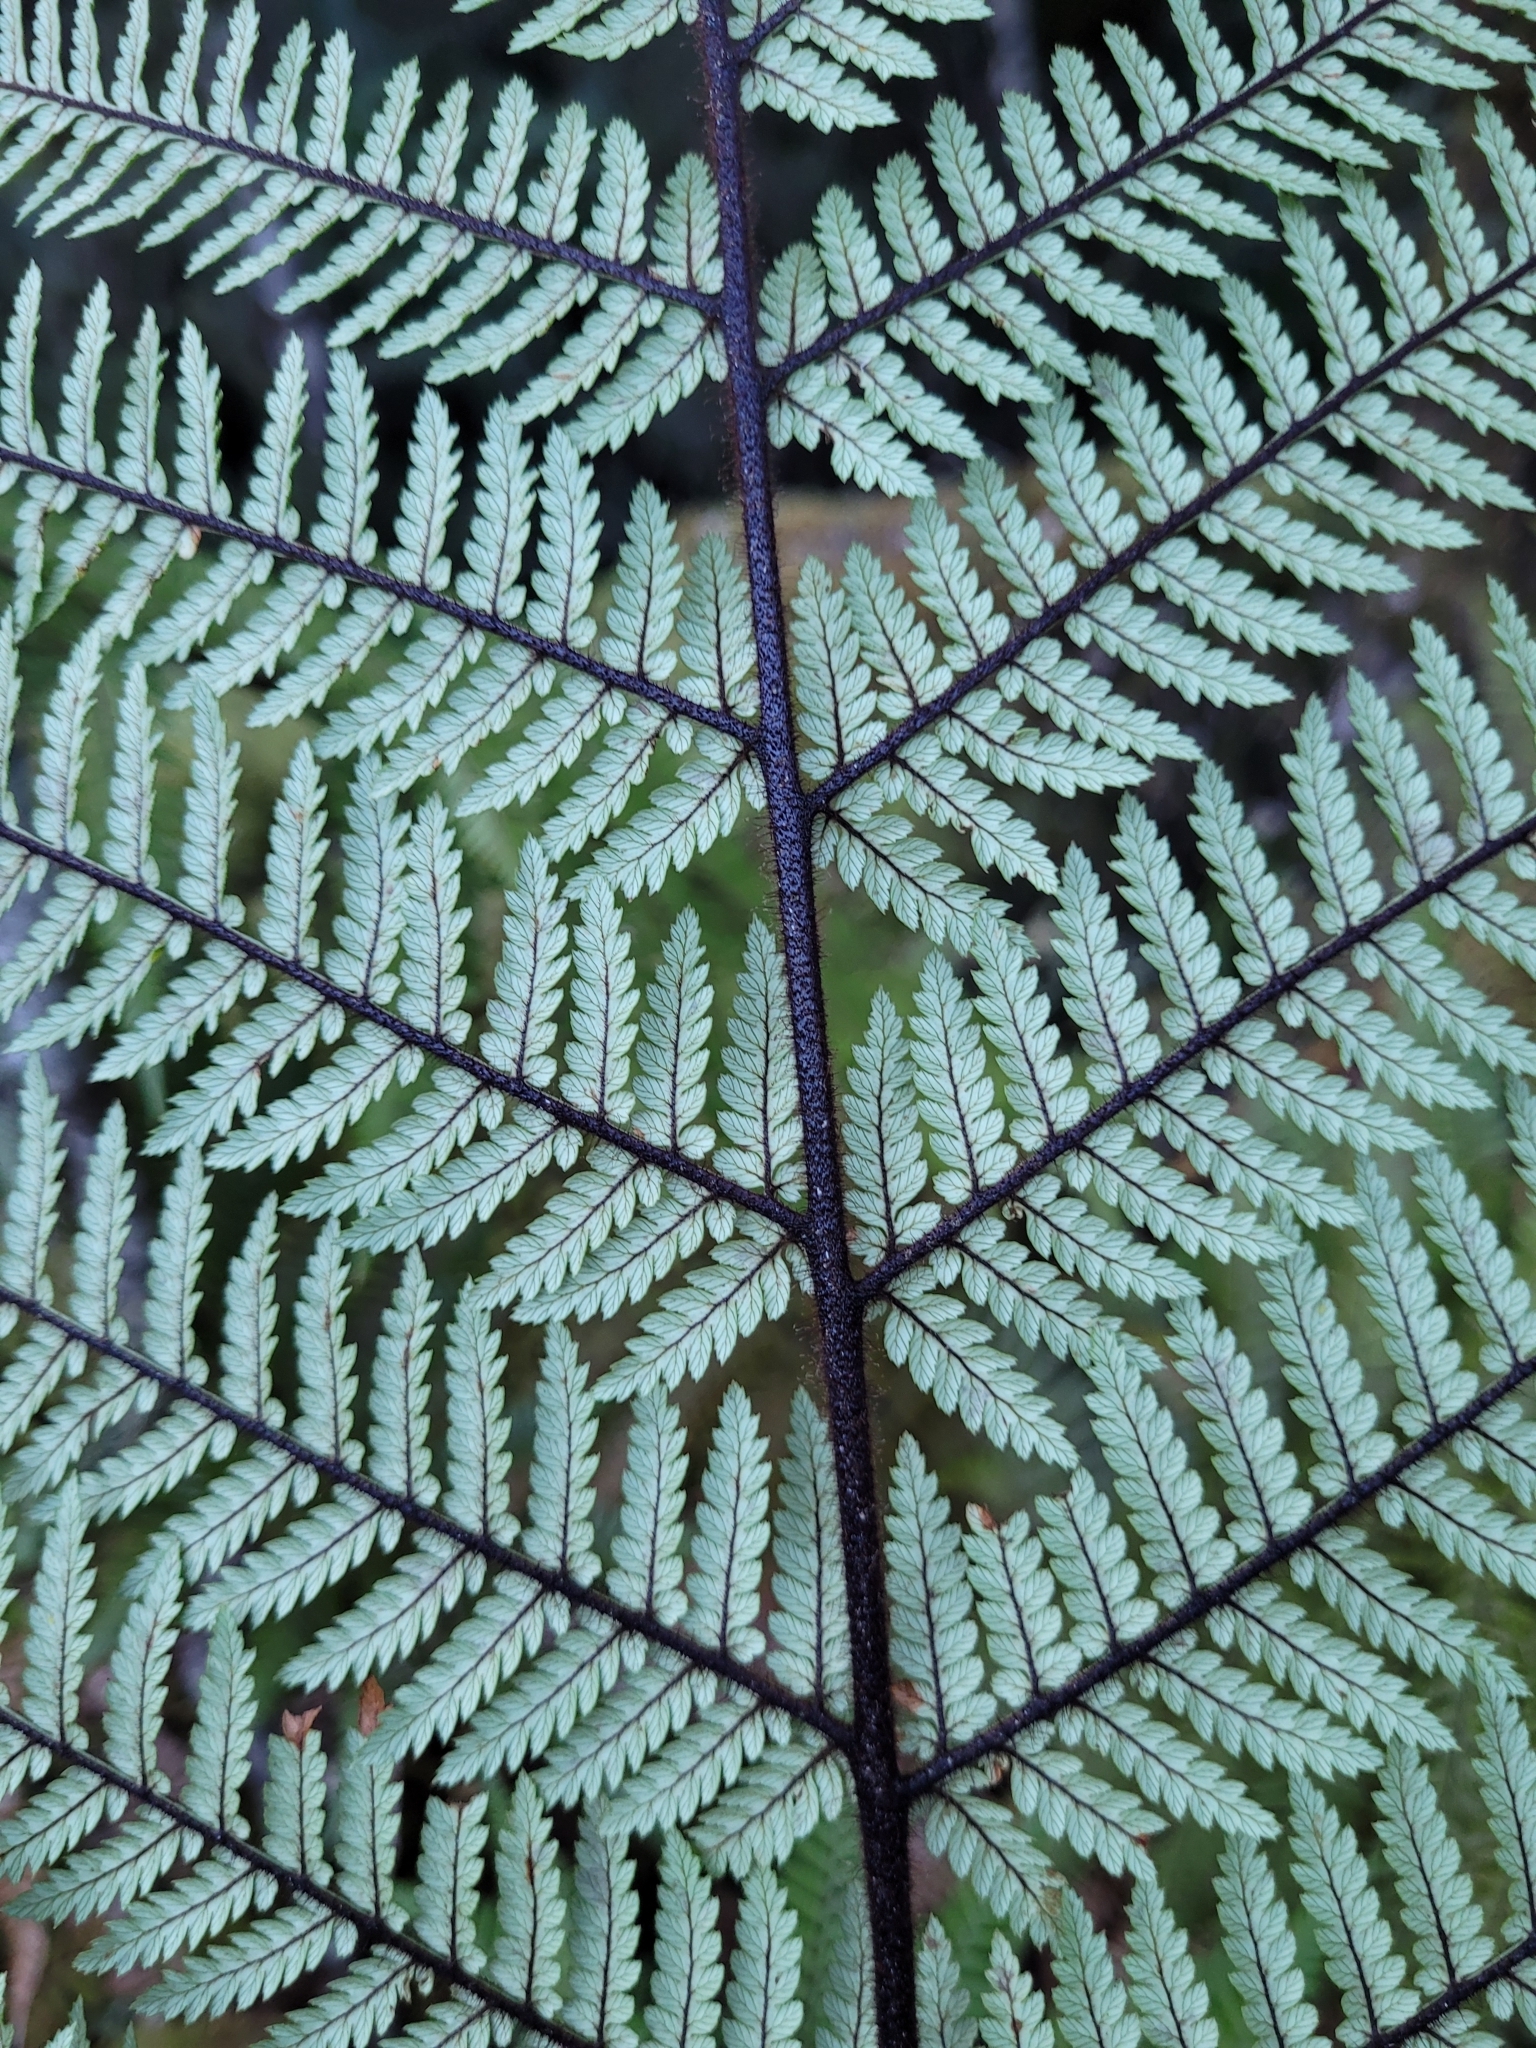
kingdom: Plantae
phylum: Tracheophyta
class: Polypodiopsida
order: Cyatheales
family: Dicksoniaceae
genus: Dicksonia
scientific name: Dicksonia squarrosa
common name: Hard treefern
